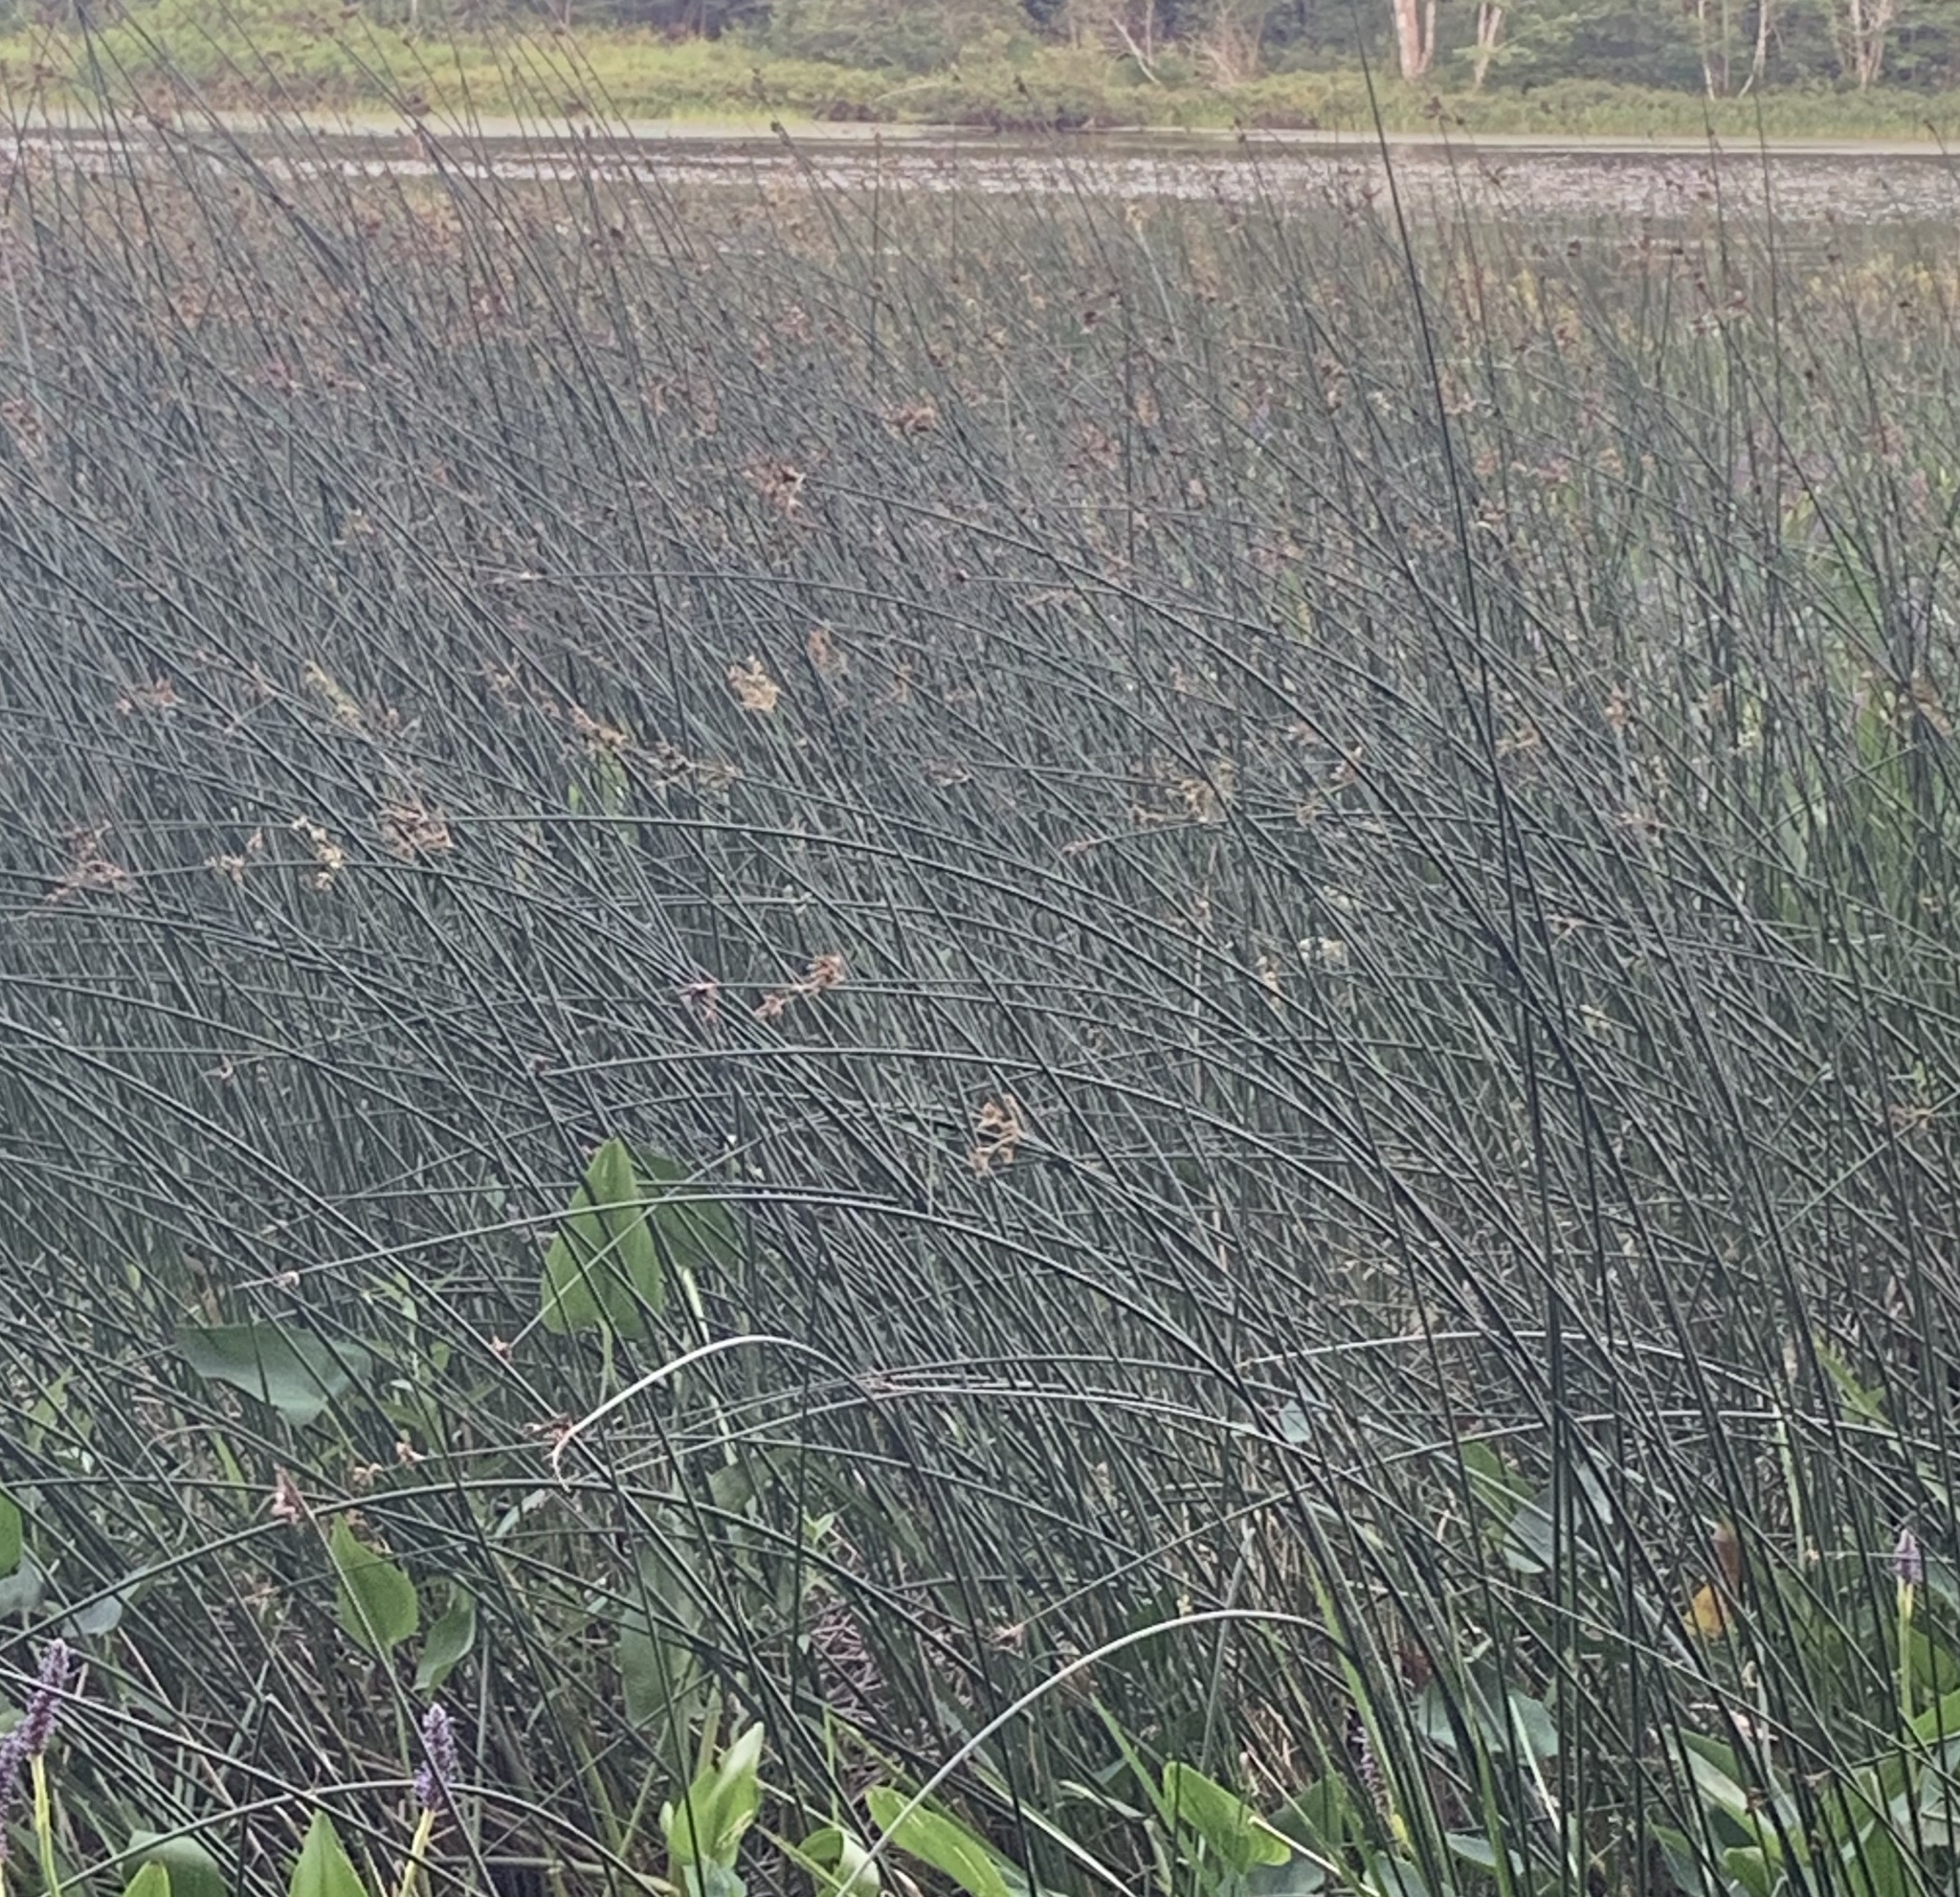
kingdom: Plantae
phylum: Tracheophyta
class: Liliopsida
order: Poales
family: Cyperaceae
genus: Schoenoplectus
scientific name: Schoenoplectus acutus
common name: Hardstem bulrush
